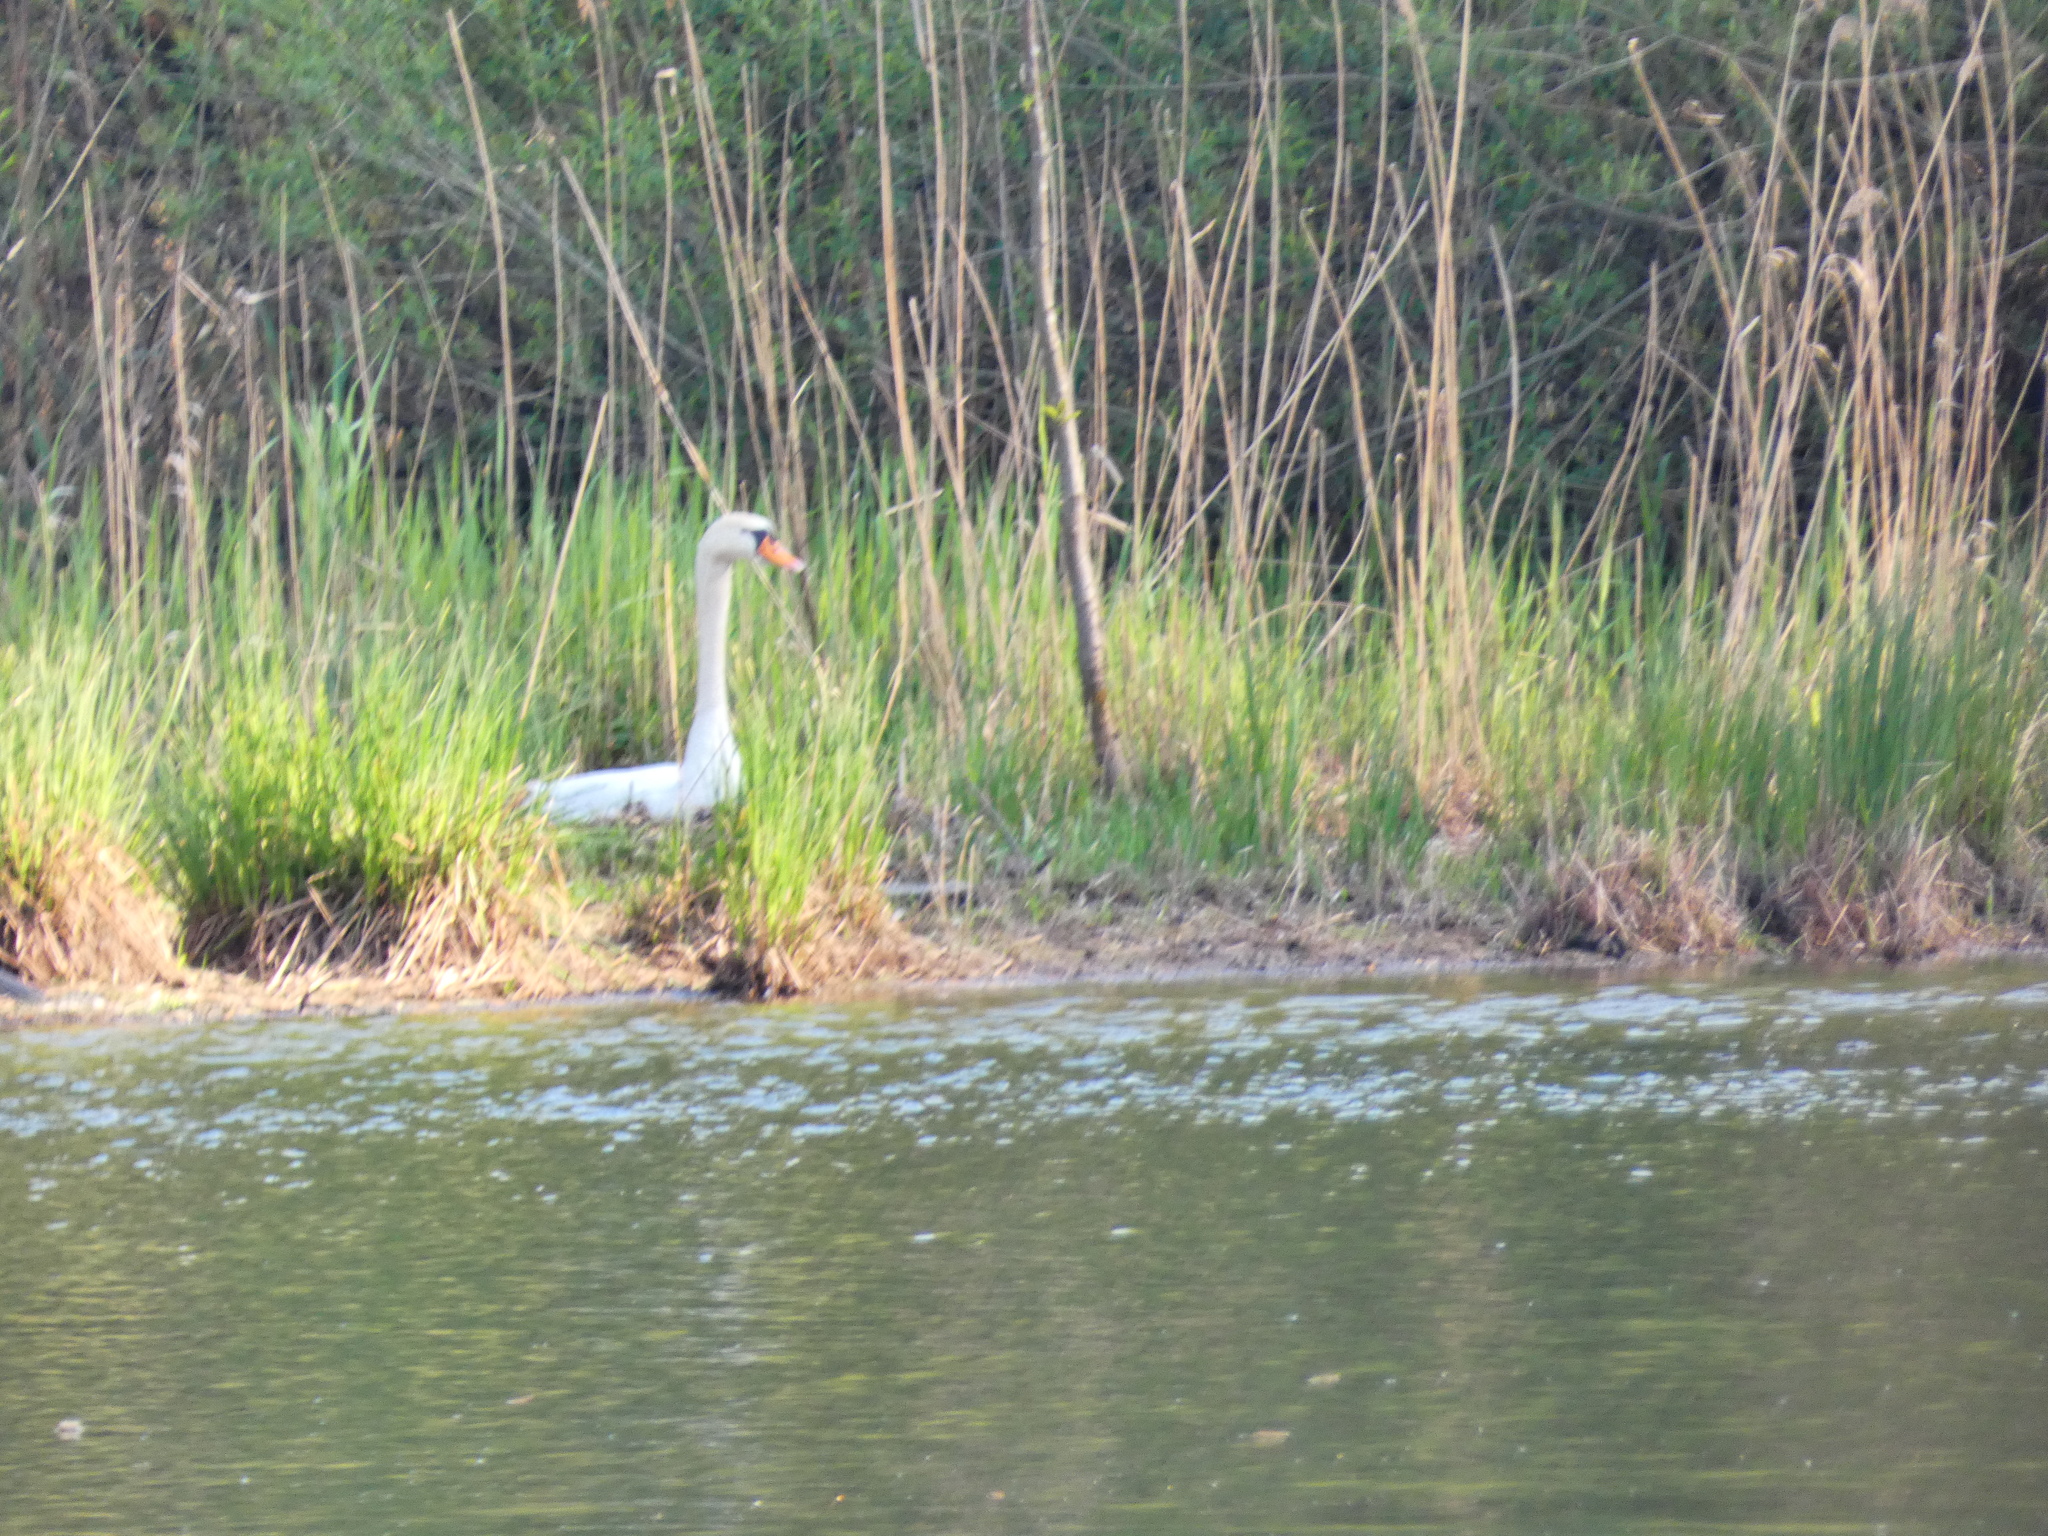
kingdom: Animalia
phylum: Chordata
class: Aves
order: Anseriformes
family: Anatidae
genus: Cygnus
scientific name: Cygnus olor
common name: Mute swan
